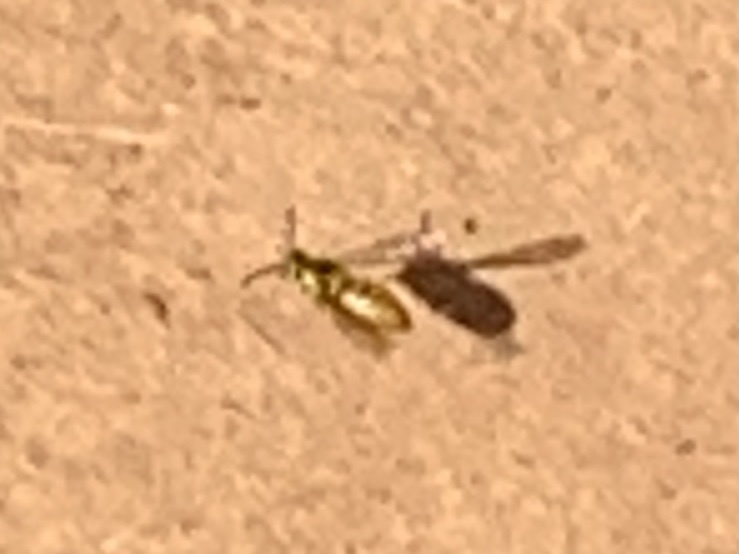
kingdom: Animalia
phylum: Arthropoda
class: Insecta
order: Hymenoptera
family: Vespidae
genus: Vespula
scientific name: Vespula
